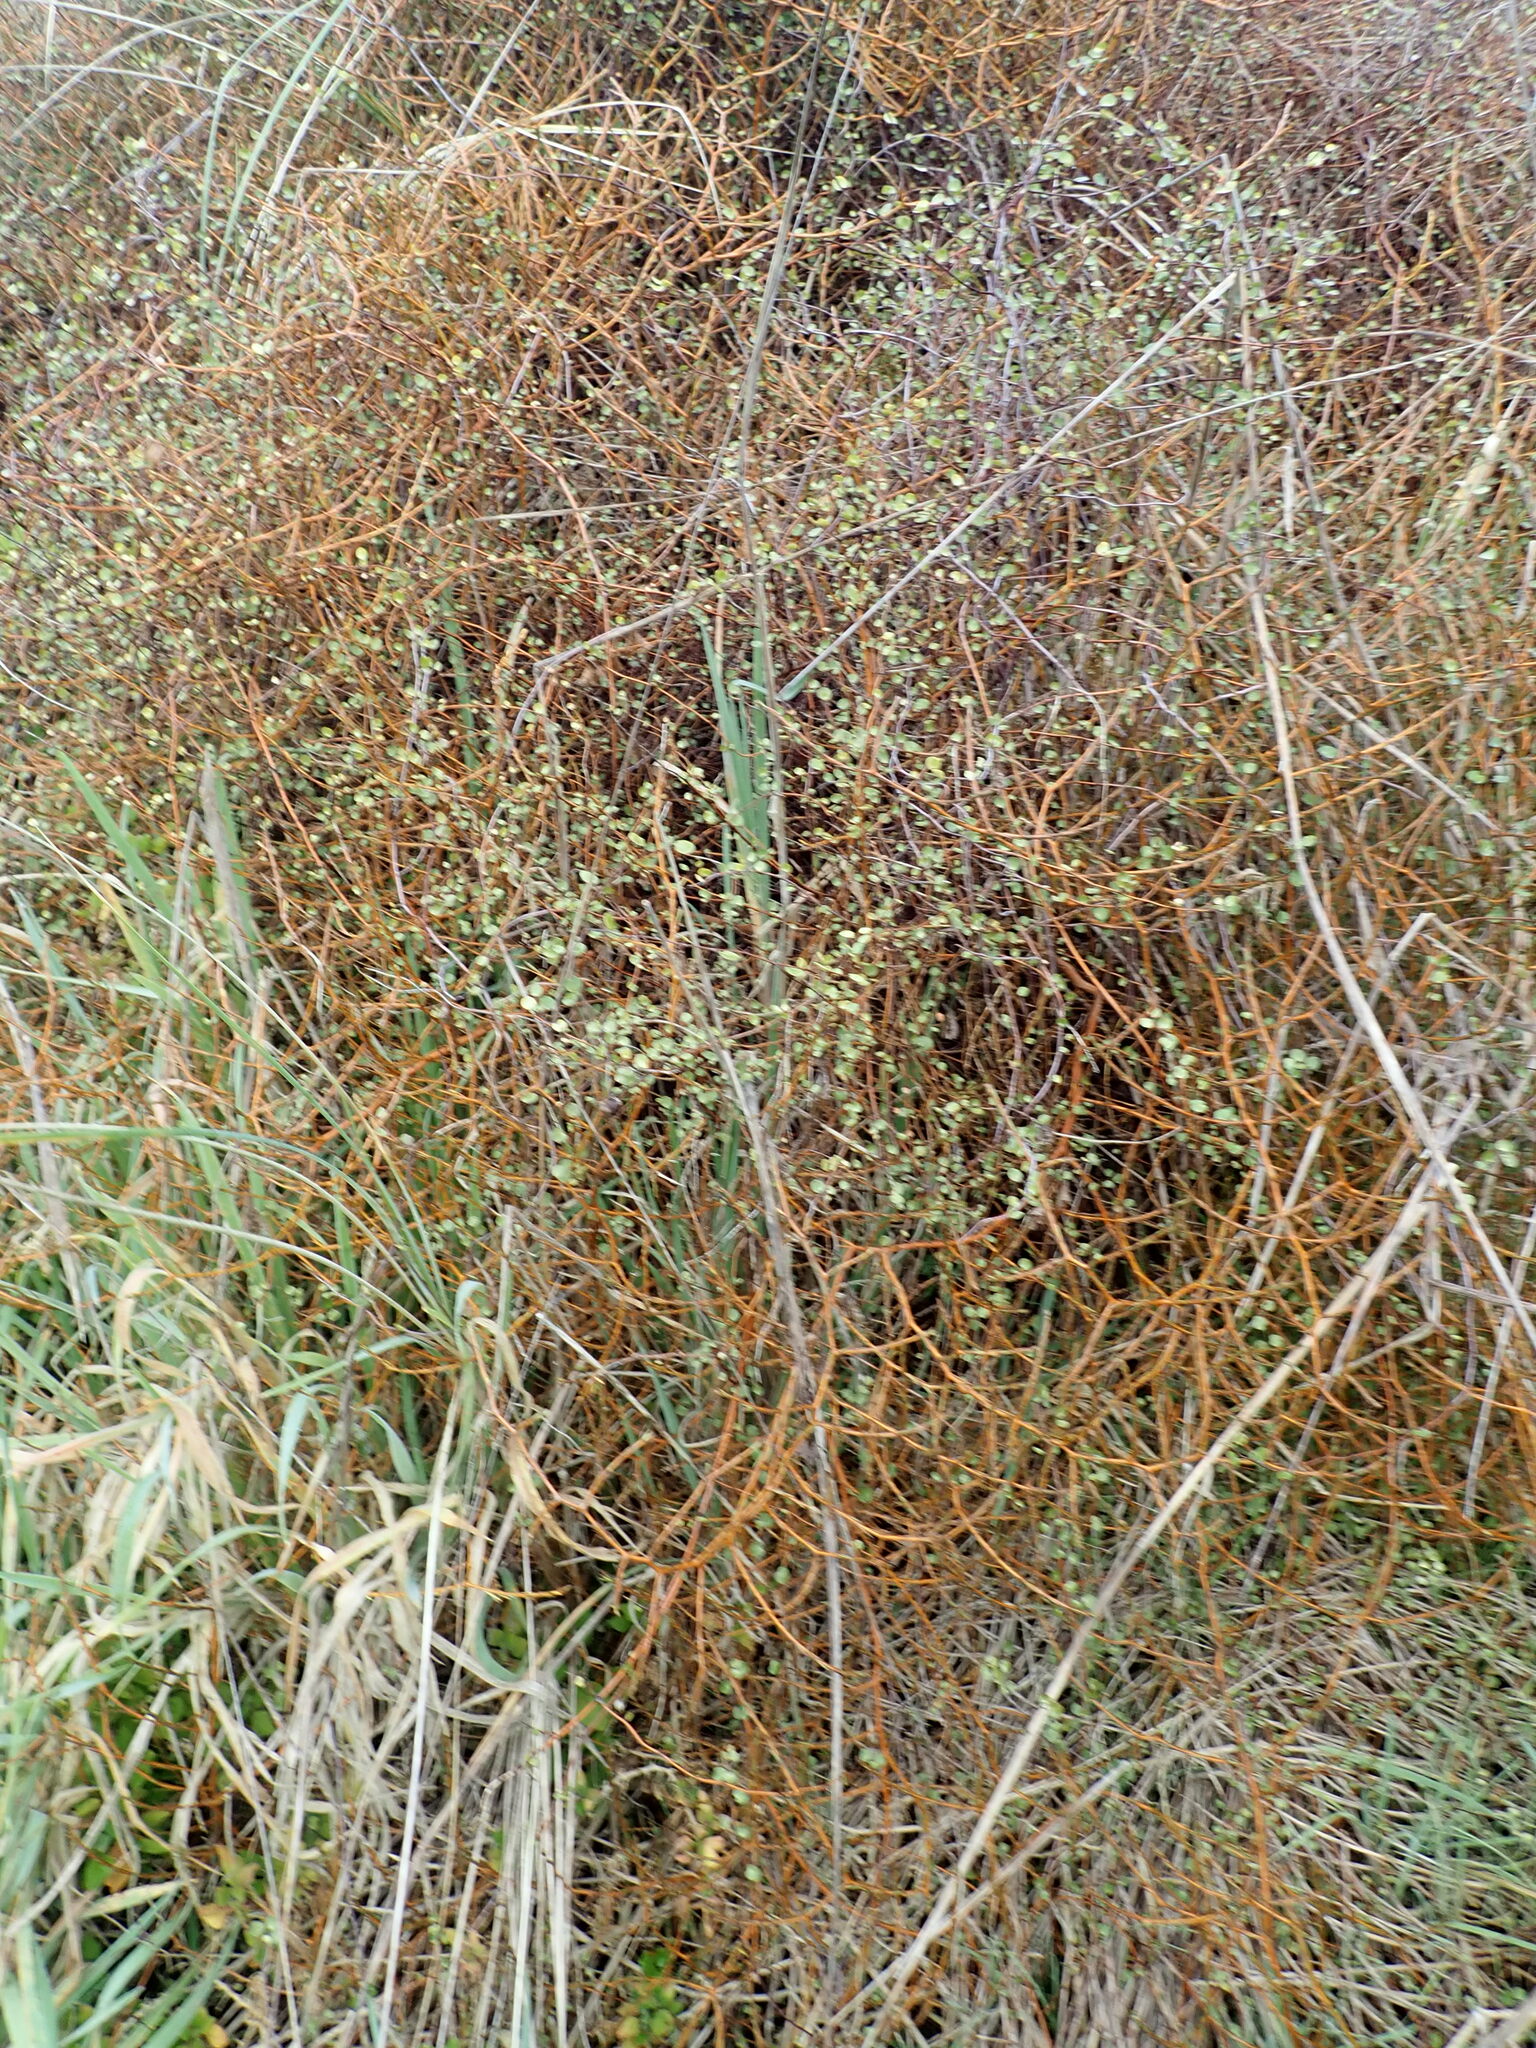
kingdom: Plantae
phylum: Tracheophyta
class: Magnoliopsida
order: Caryophyllales
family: Polygonaceae
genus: Muehlenbeckia
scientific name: Muehlenbeckia complexa
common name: Wireplant
